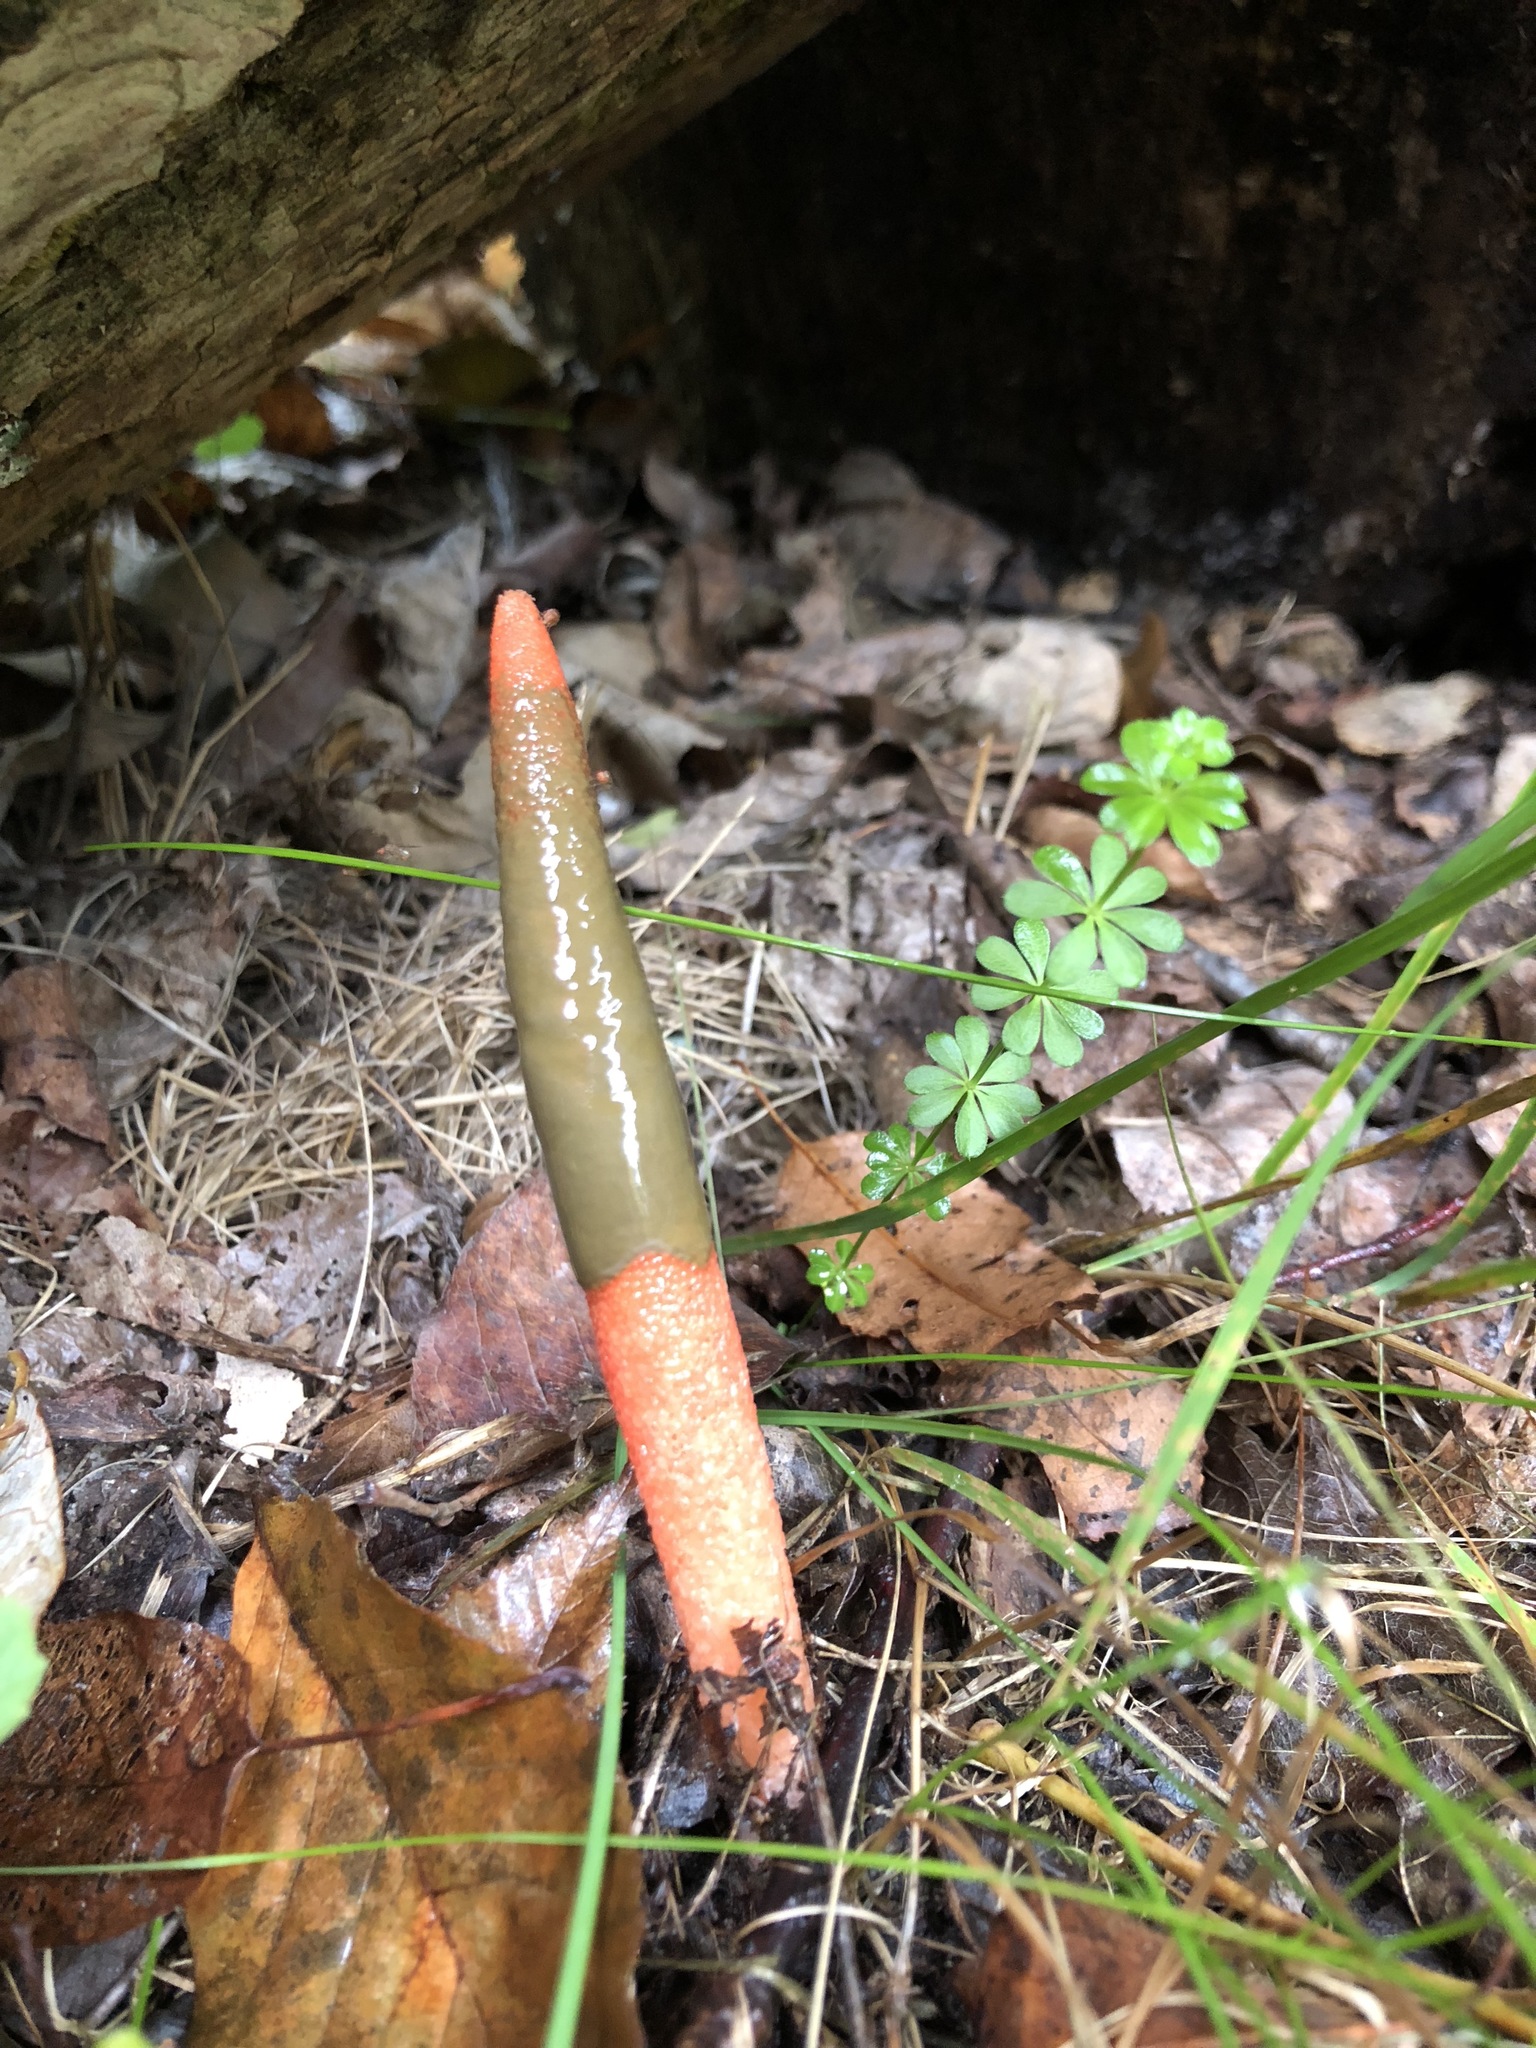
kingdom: Fungi
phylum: Basidiomycota
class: Agaricomycetes
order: Phallales
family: Phallaceae
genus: Mutinus
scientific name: Mutinus elegans
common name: Devil's dipstick
